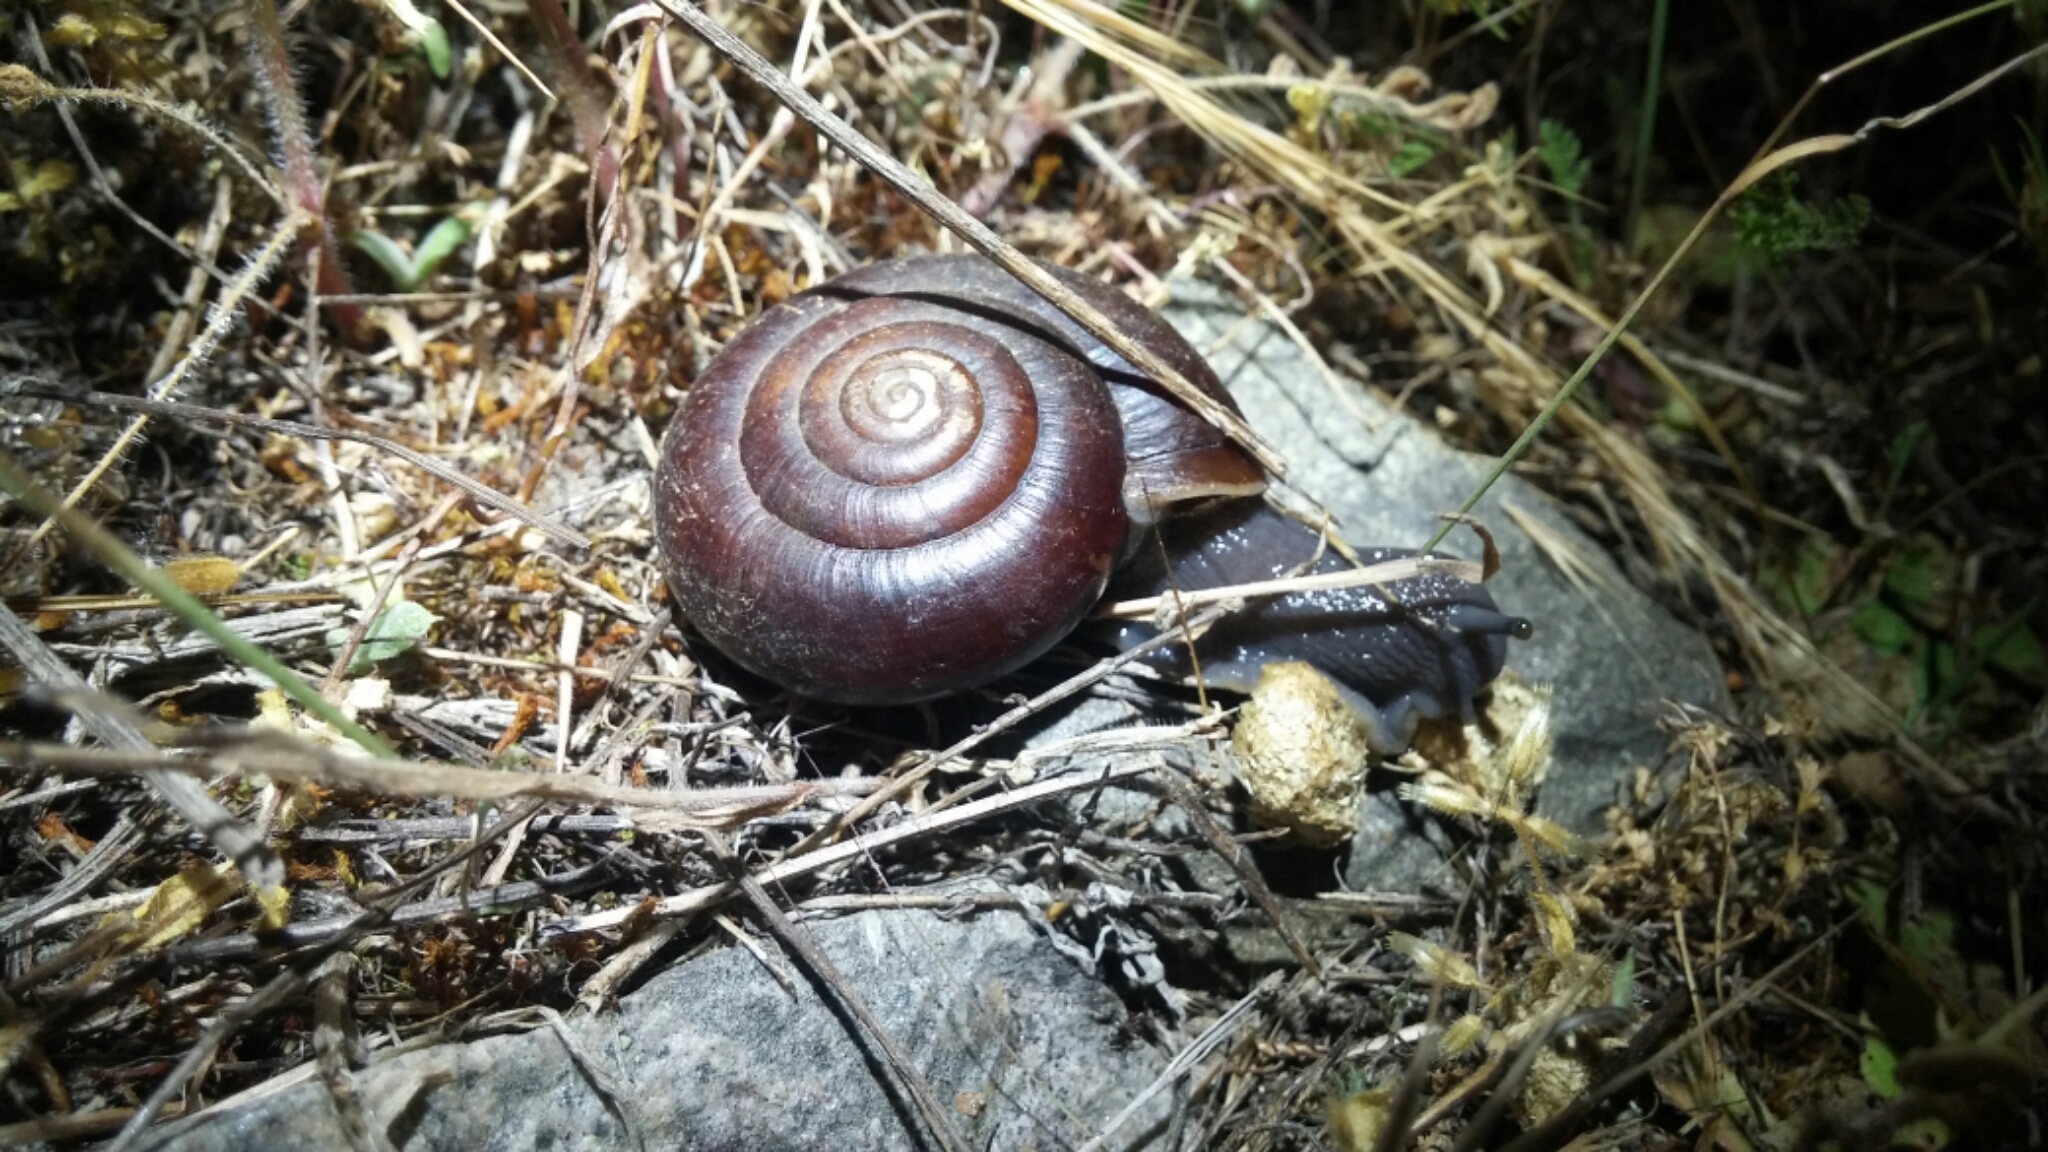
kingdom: Animalia
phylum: Mollusca
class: Gastropoda
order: Stylommatophora
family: Megomphicidae
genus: Glyptostoma
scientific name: Glyptostoma newberryanum
